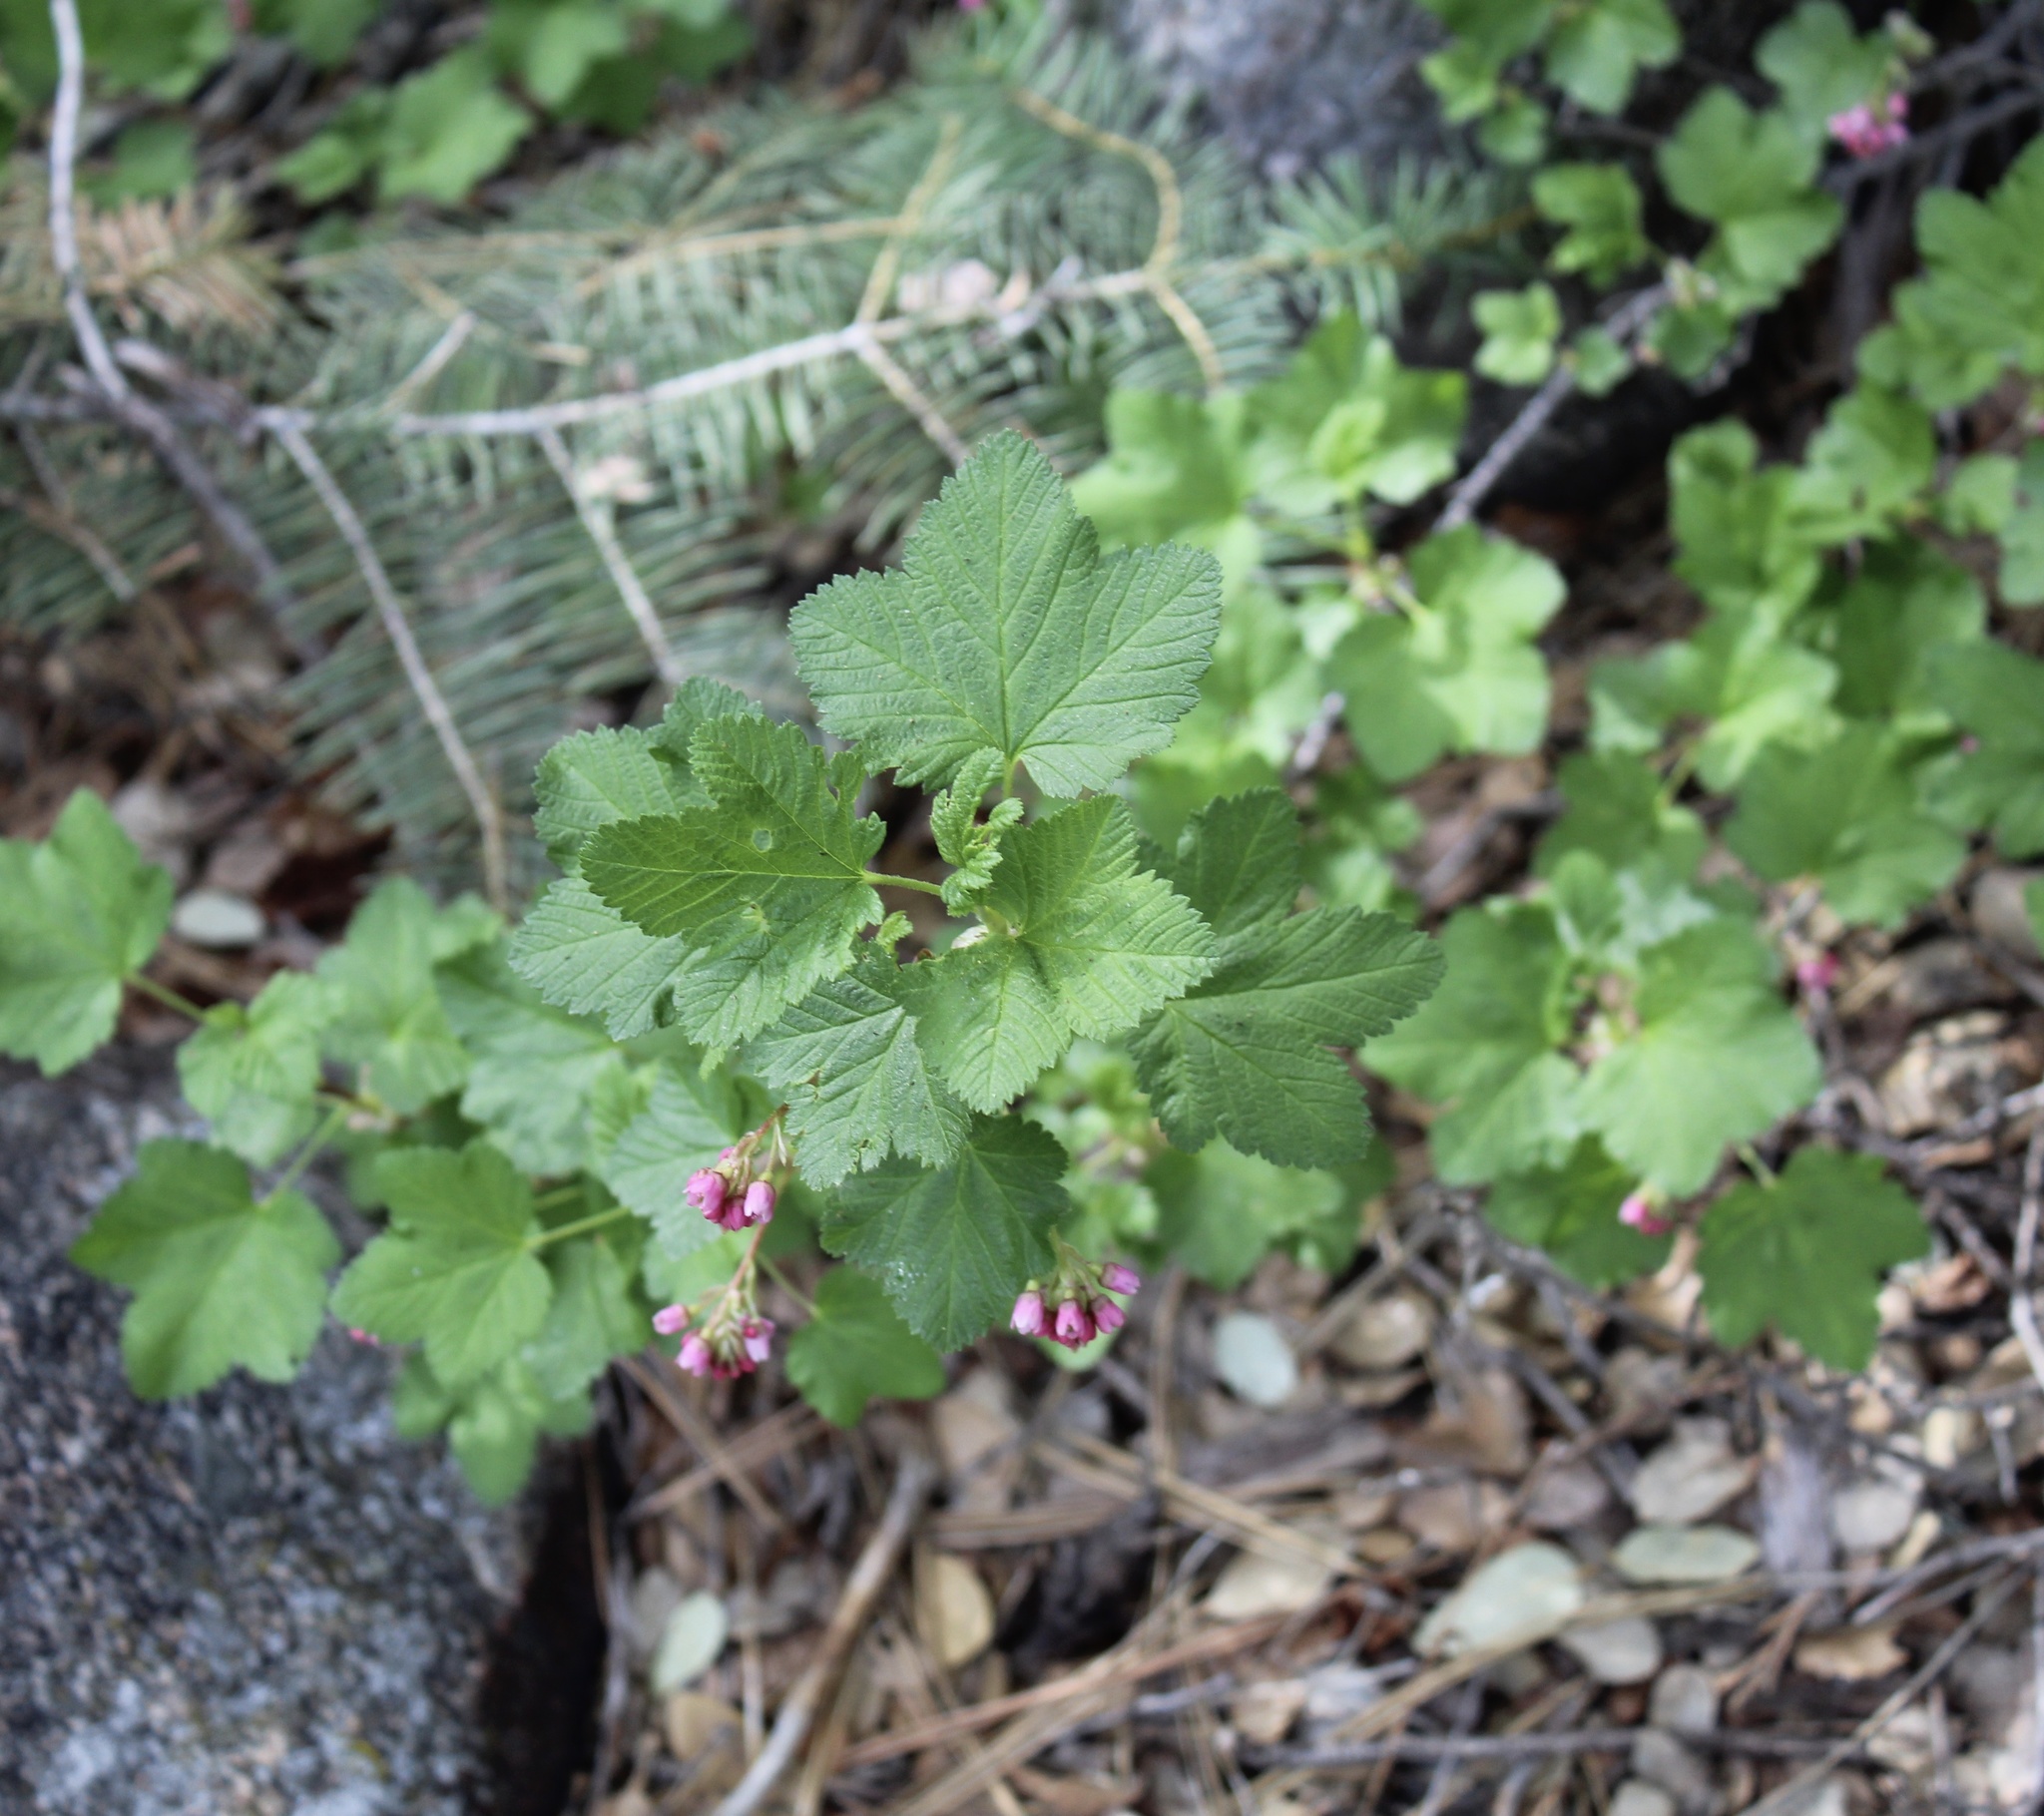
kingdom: Plantae
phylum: Tracheophyta
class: Magnoliopsida
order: Saxifragales
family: Grossulariaceae
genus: Ribes
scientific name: Ribes nevadense
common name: Mountain pink currant
